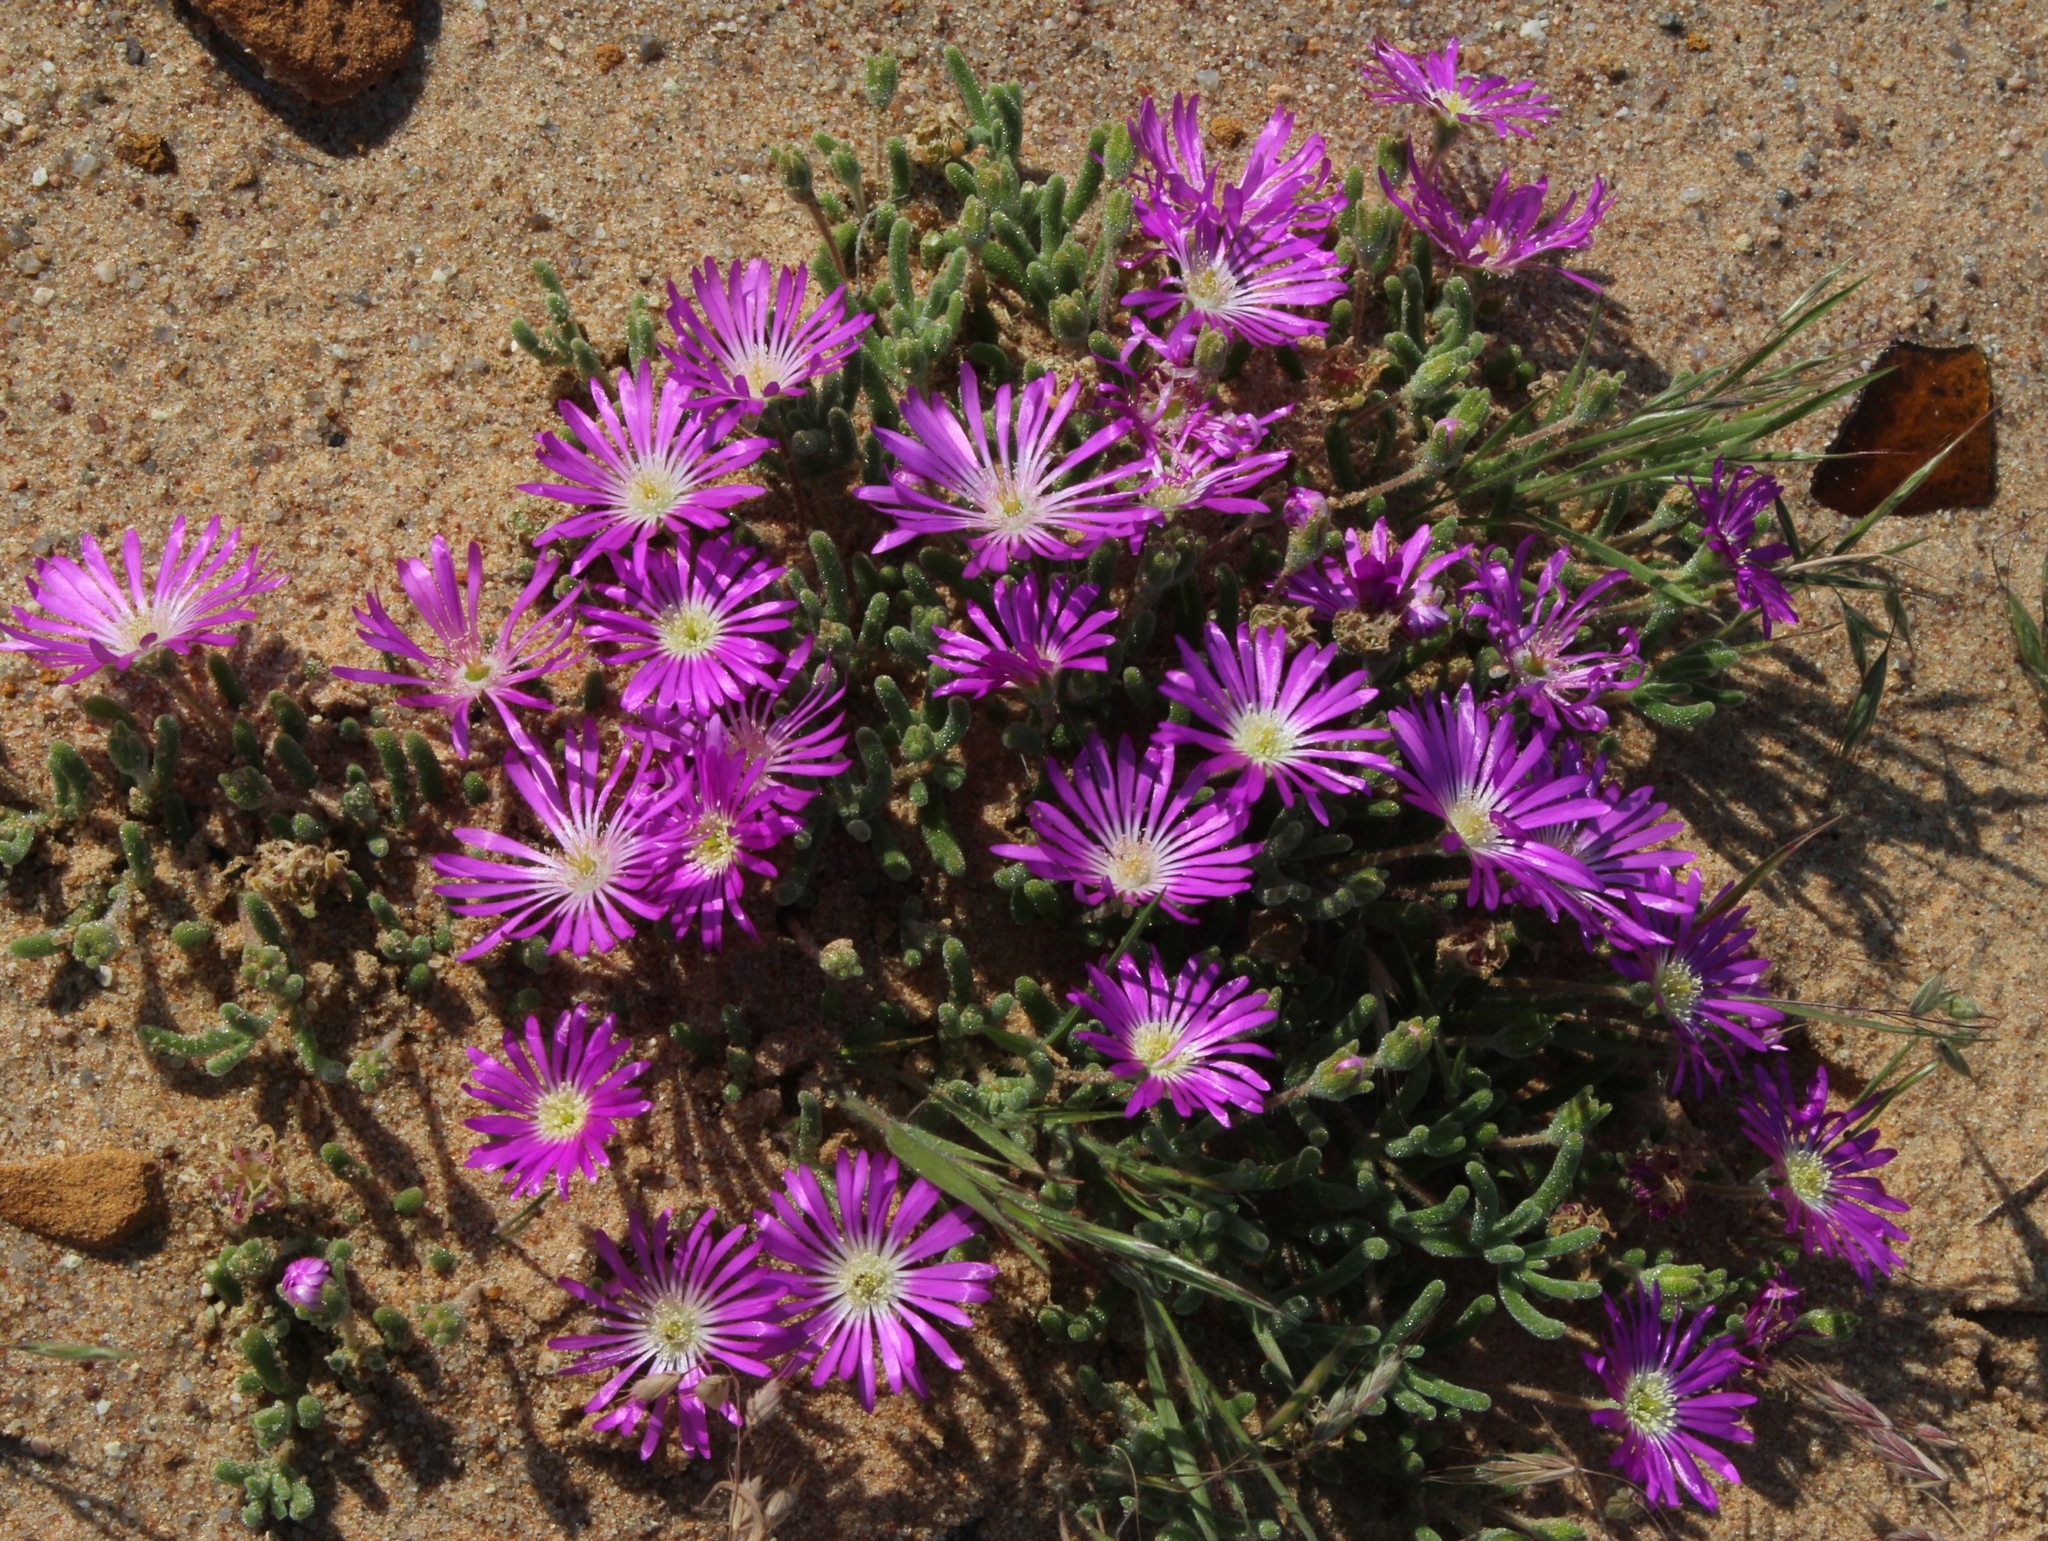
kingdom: Plantae
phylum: Tracheophyta
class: Magnoliopsida
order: Caryophyllales
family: Aizoaceae
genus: Drosanthemum
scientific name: Drosanthemum oculatum
